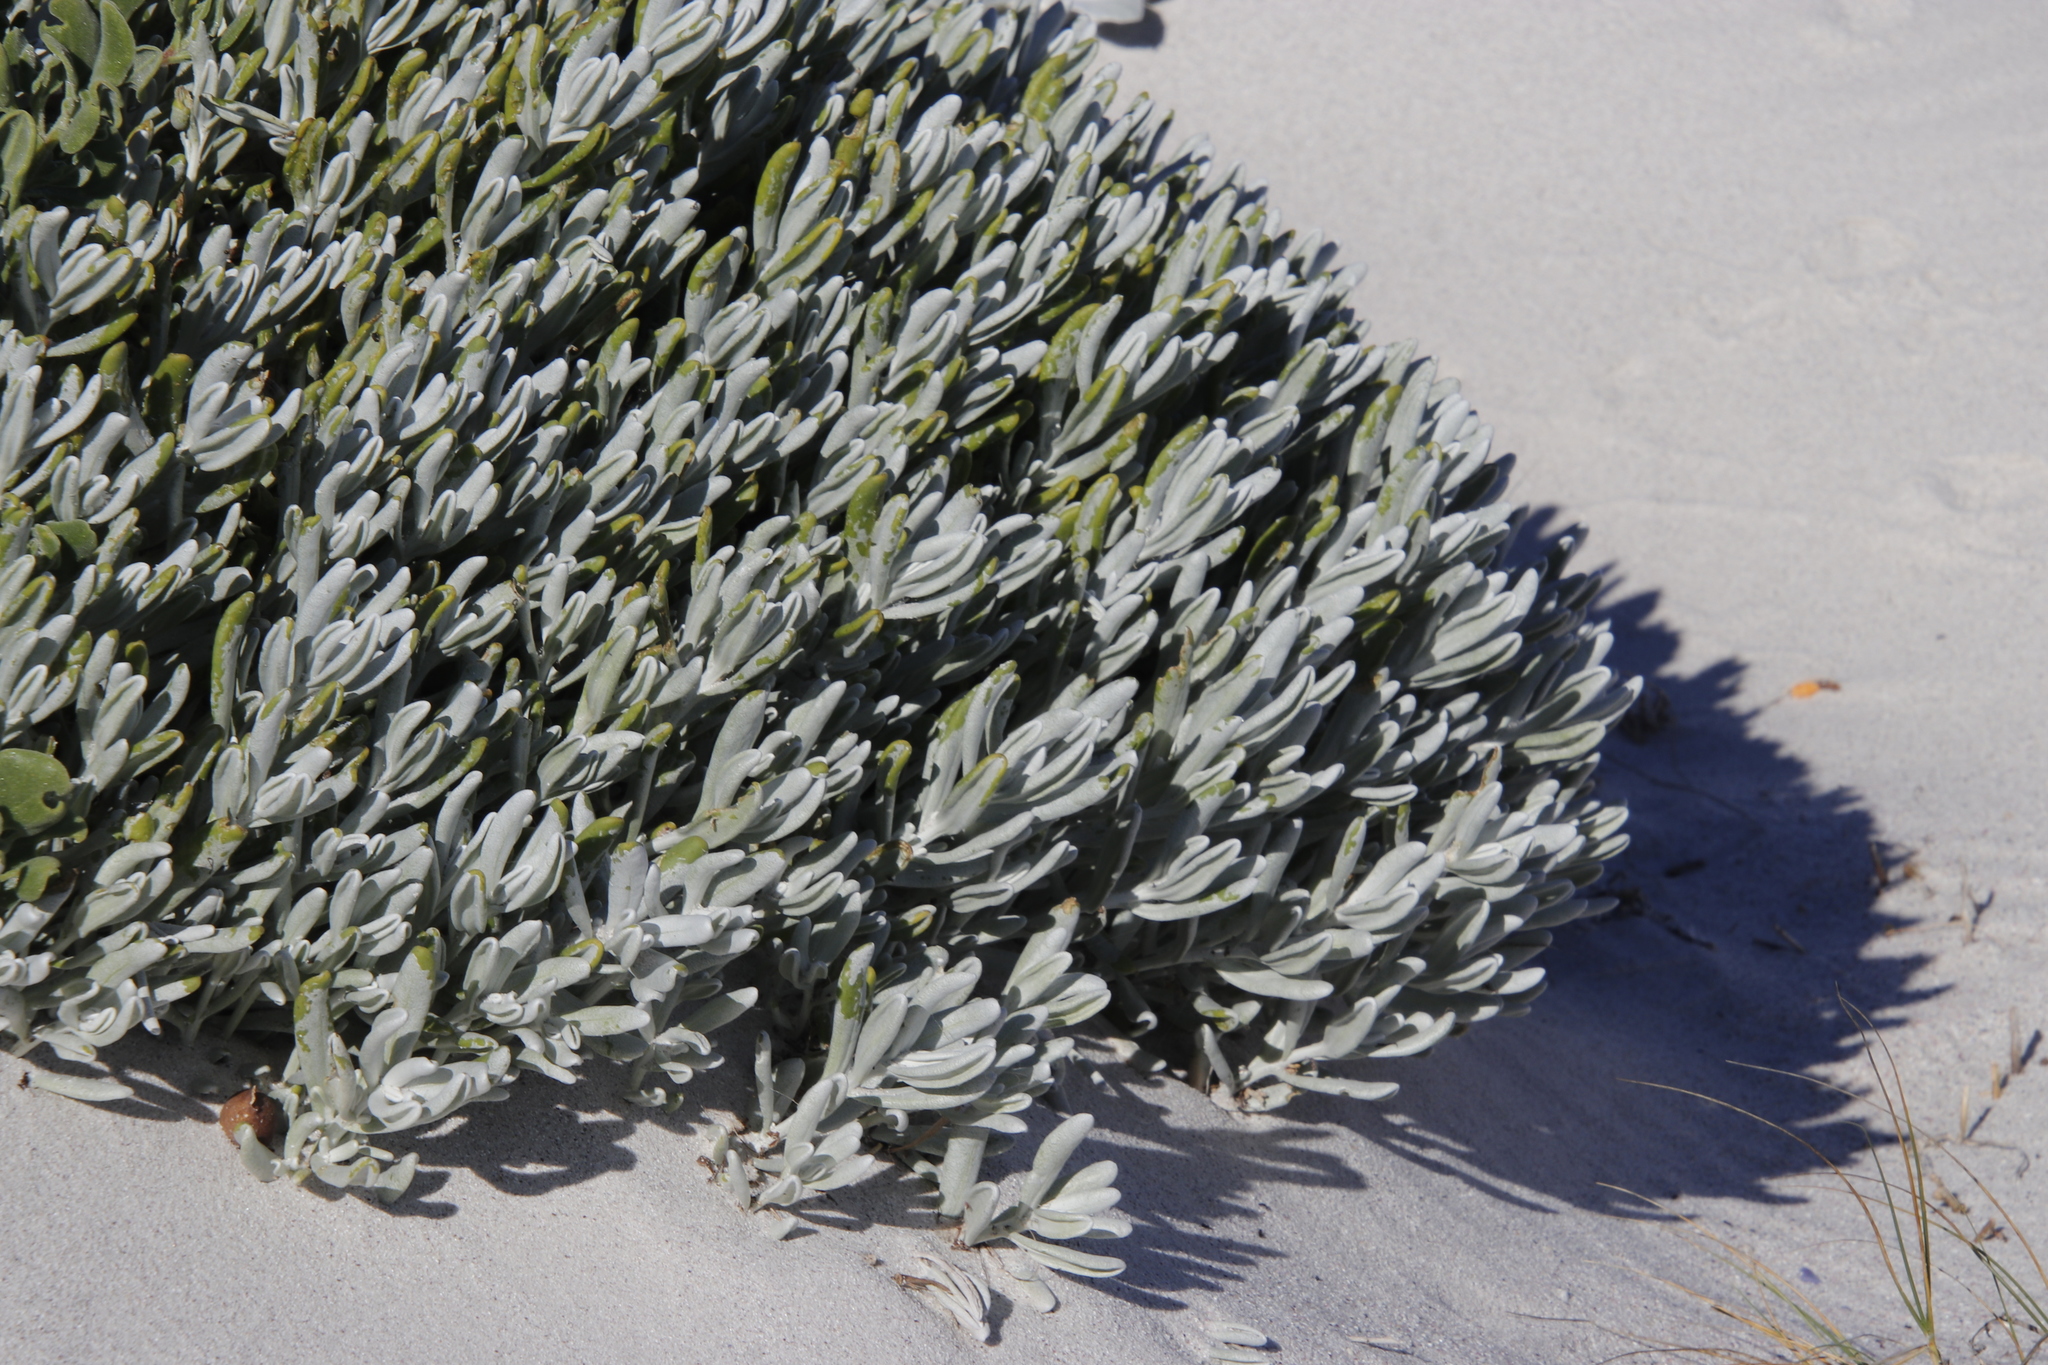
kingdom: Plantae
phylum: Tracheophyta
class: Magnoliopsida
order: Asterales
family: Asteraceae
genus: Didelta
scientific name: Didelta carnosa
